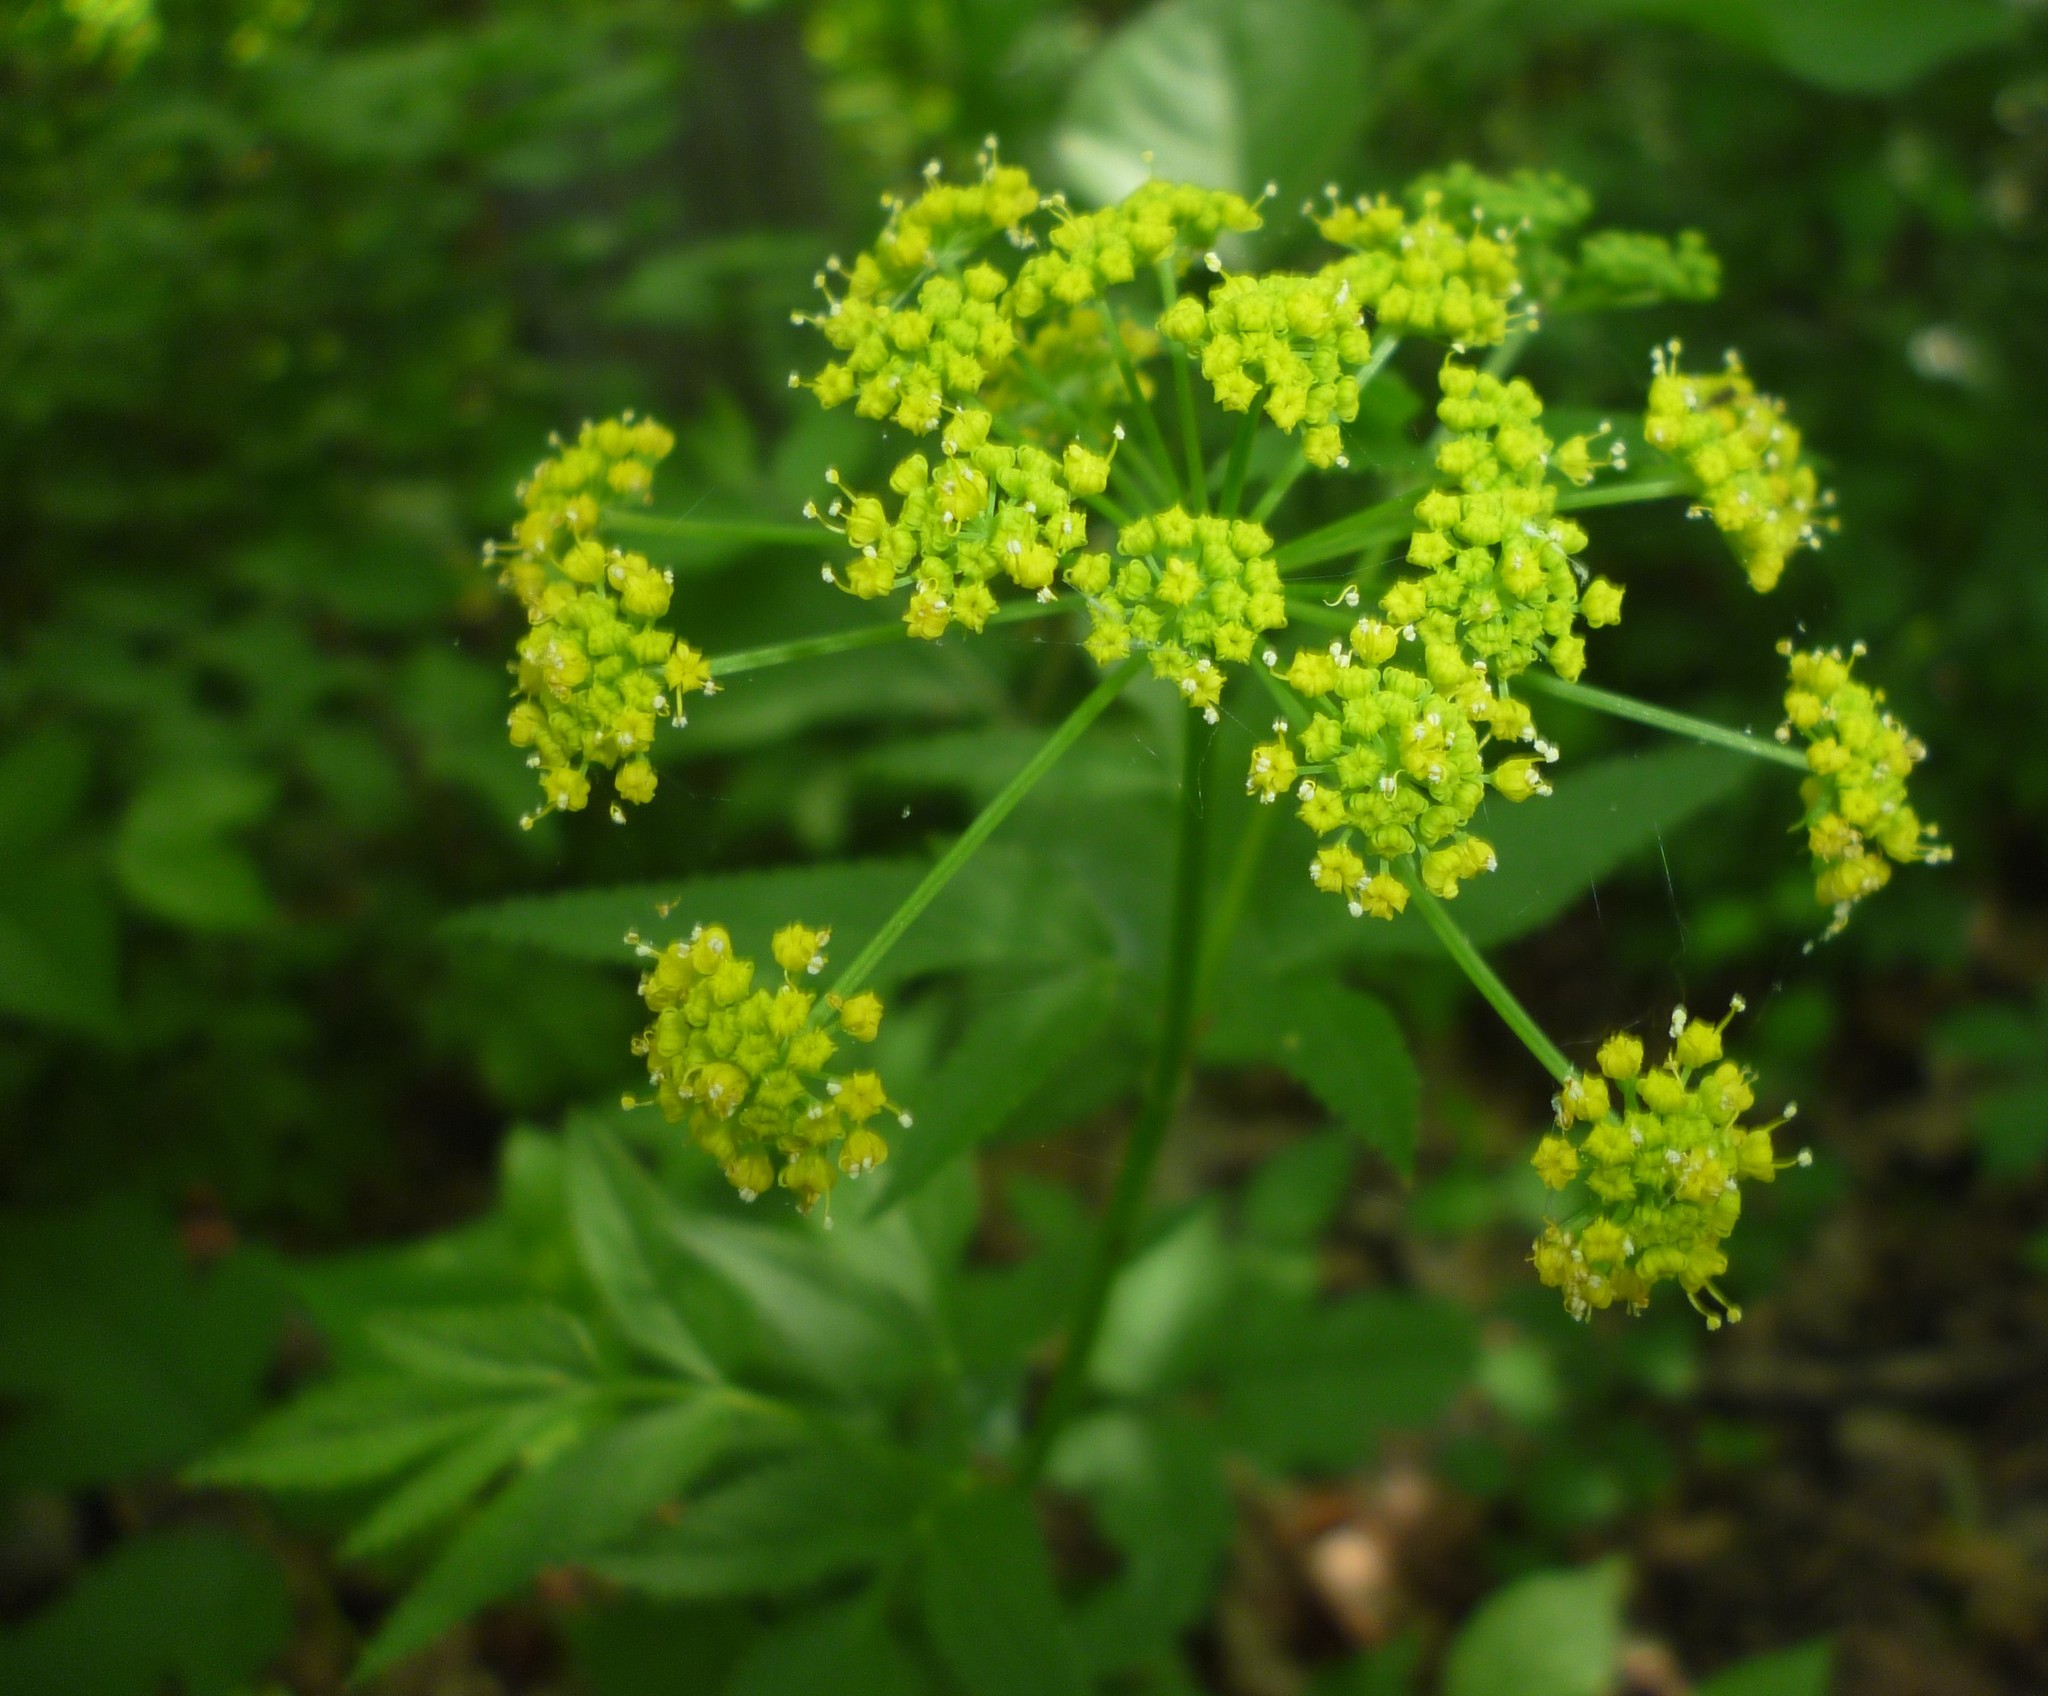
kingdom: Plantae
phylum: Tracheophyta
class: Magnoliopsida
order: Apiales
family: Apiaceae
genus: Zizia
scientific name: Zizia aurea
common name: Golden alexanders
